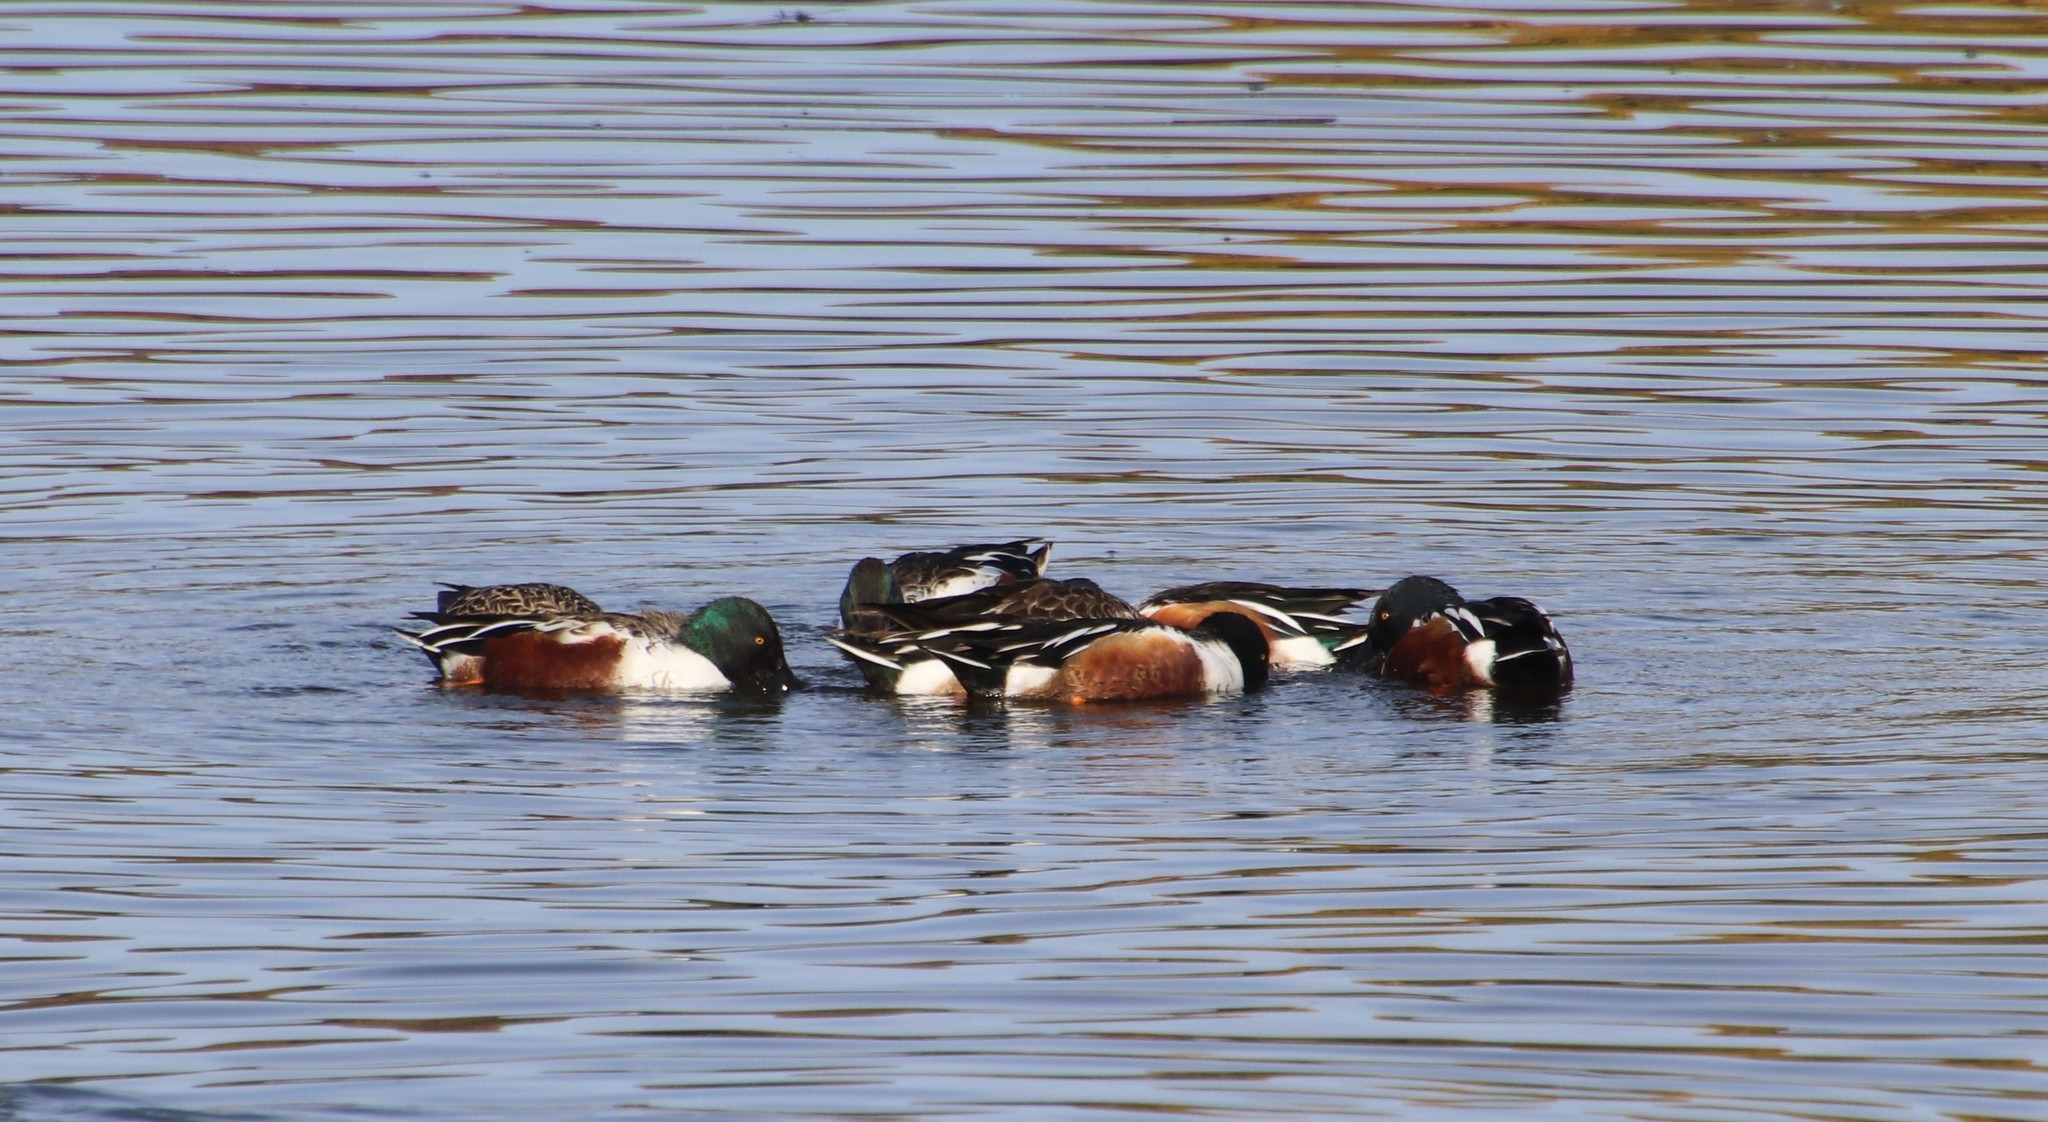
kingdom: Animalia
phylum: Chordata
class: Aves
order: Anseriformes
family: Anatidae
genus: Spatula
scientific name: Spatula clypeata
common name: Northern shoveler
